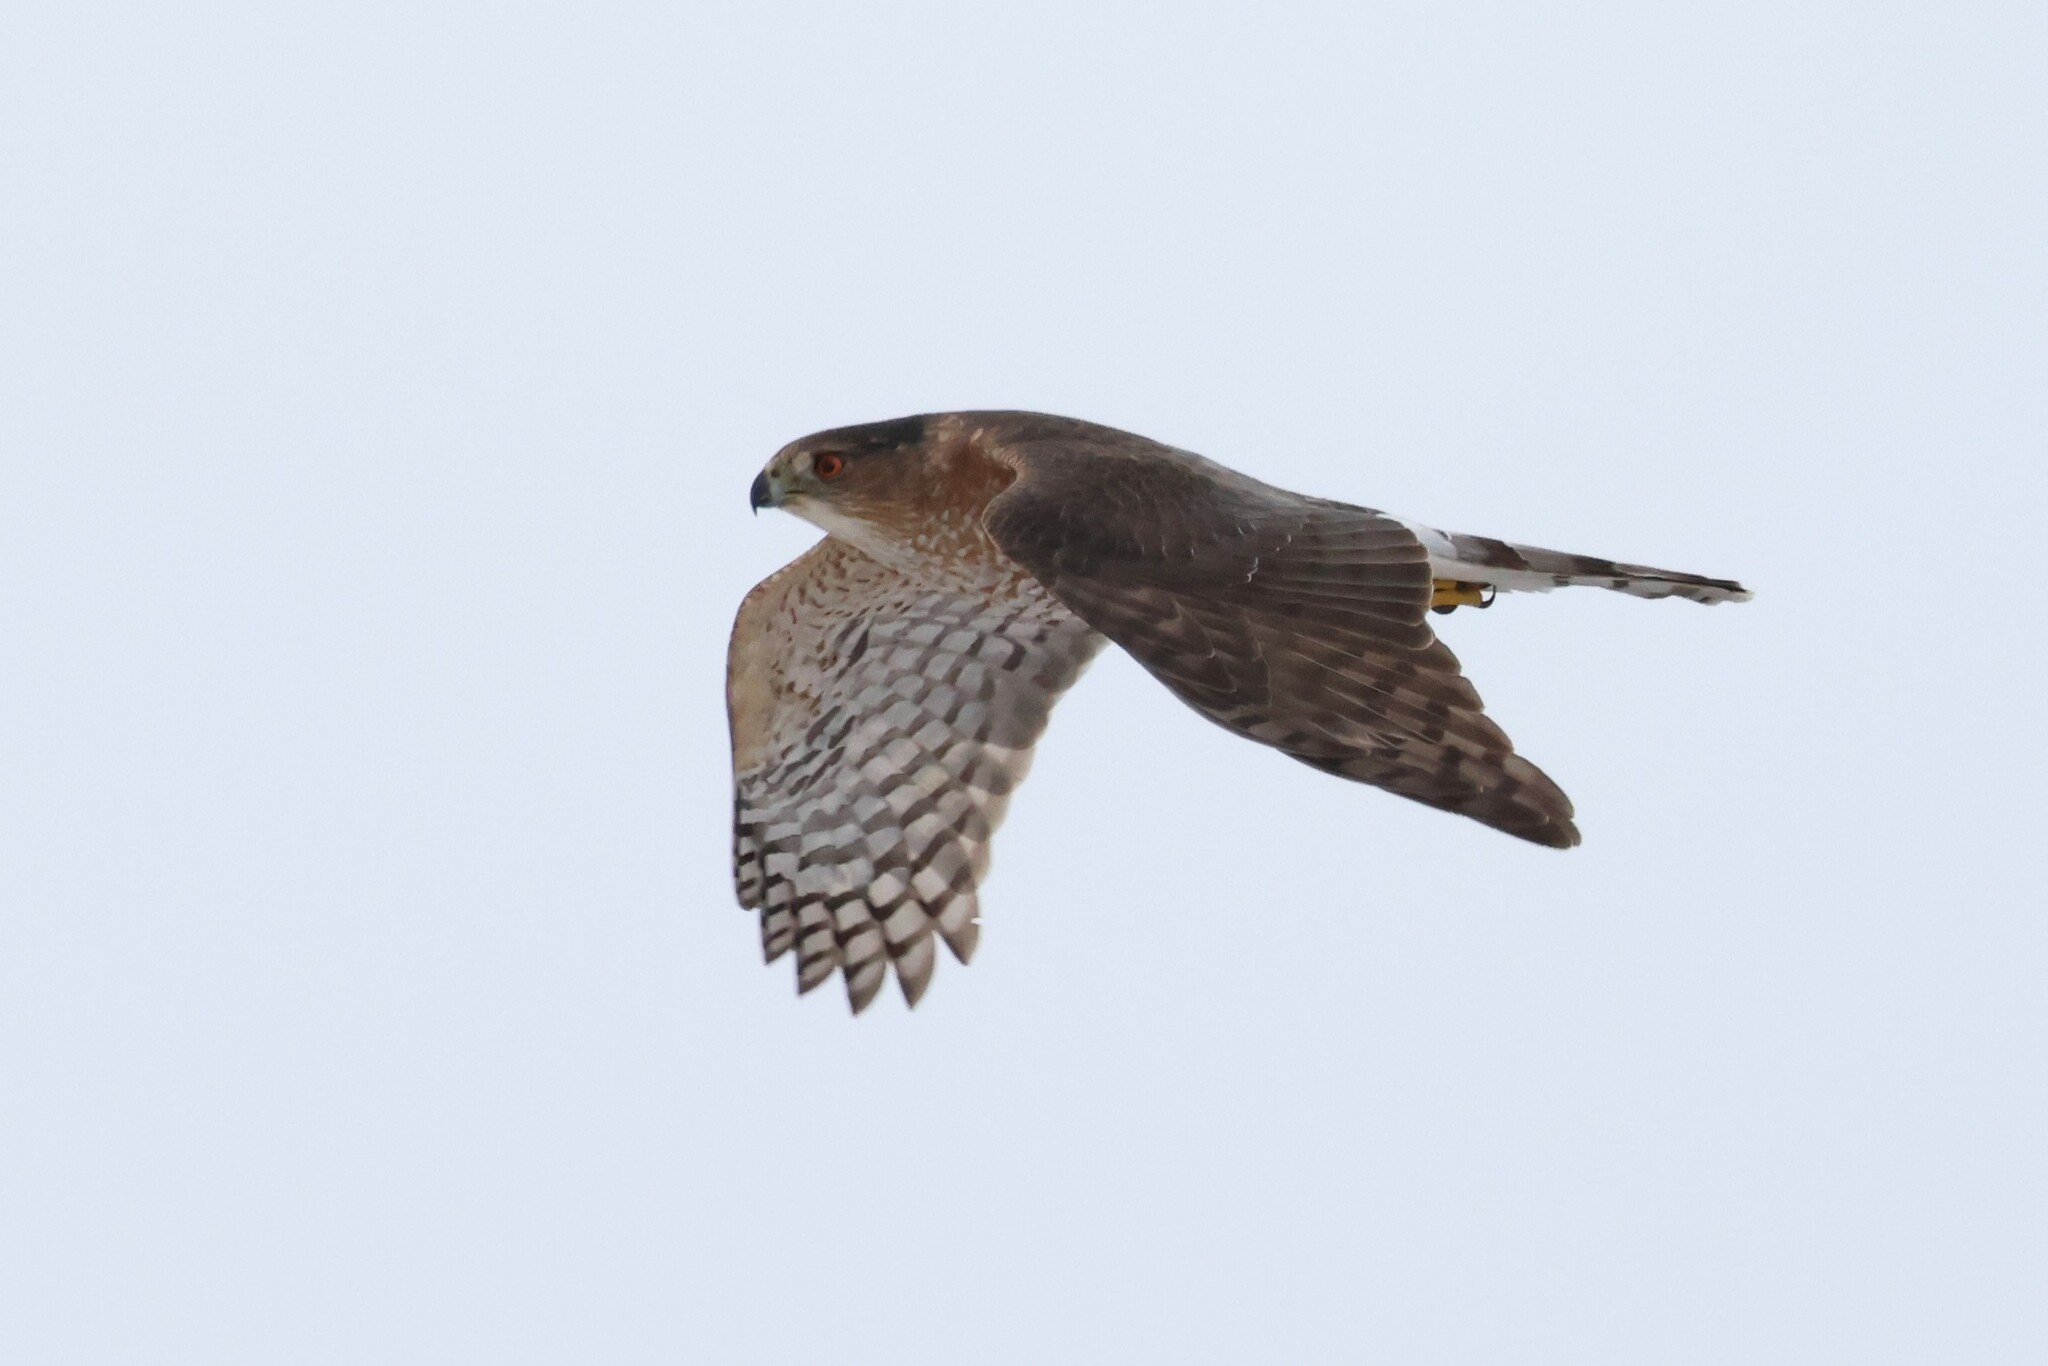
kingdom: Animalia
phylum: Chordata
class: Aves
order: Accipitriformes
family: Accipitridae
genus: Accipiter
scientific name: Accipiter cooperii
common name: Cooper's hawk
